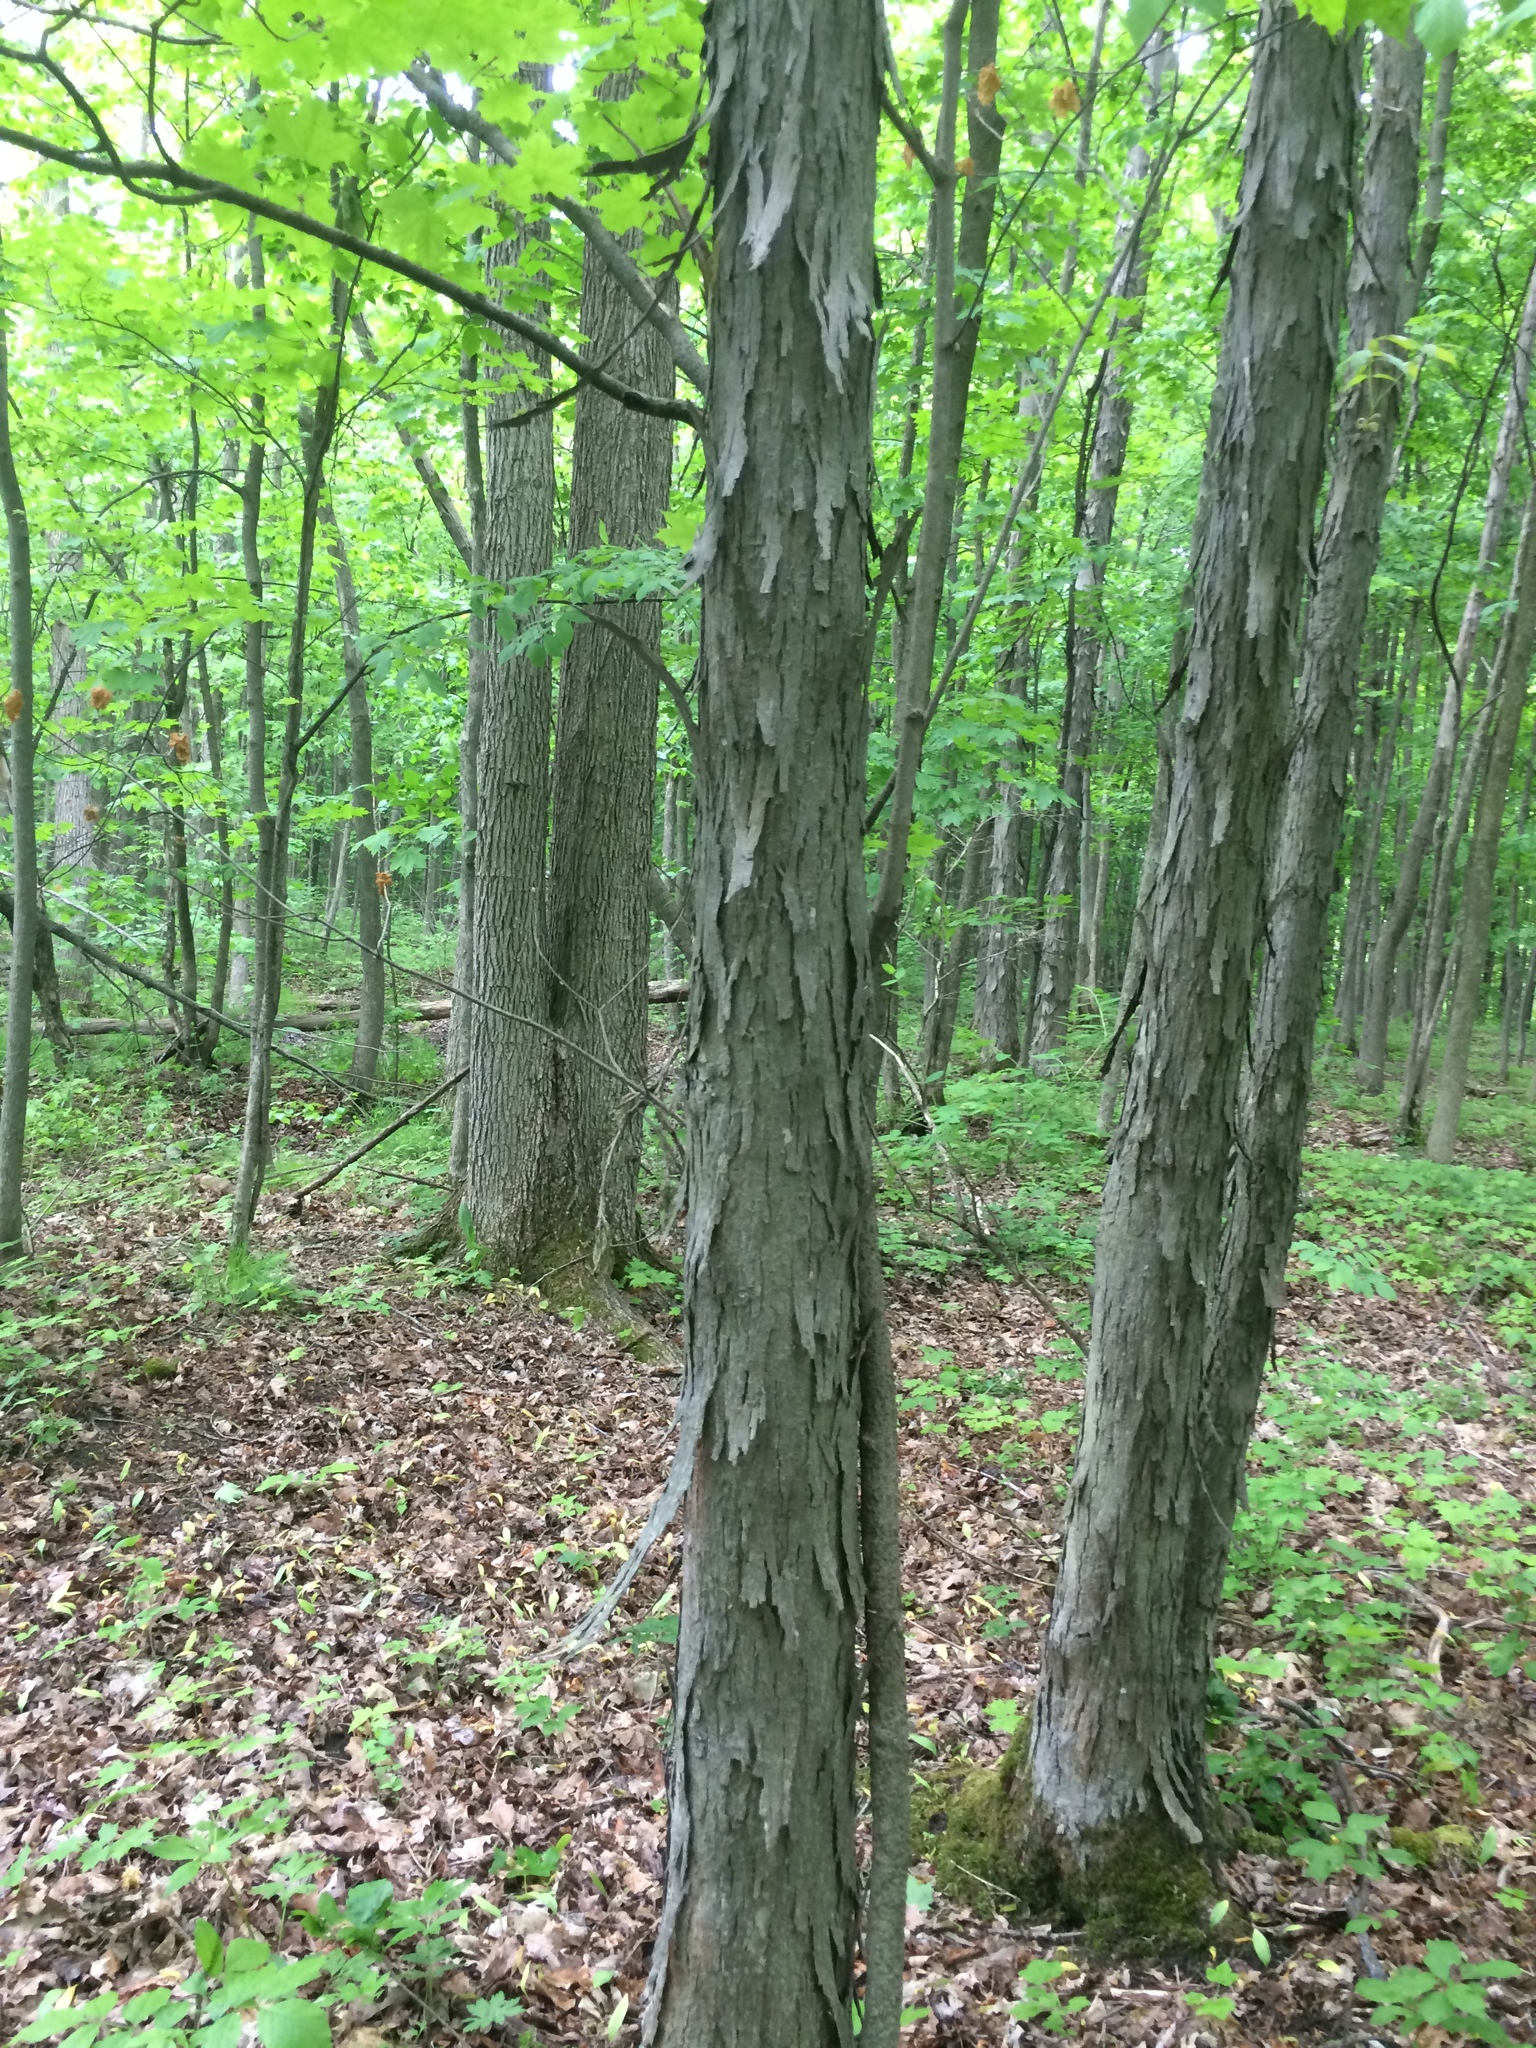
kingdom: Plantae
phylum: Tracheophyta
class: Magnoliopsida
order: Fagales
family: Juglandaceae
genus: Carya
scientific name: Carya ovata
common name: Shagbark hickory
